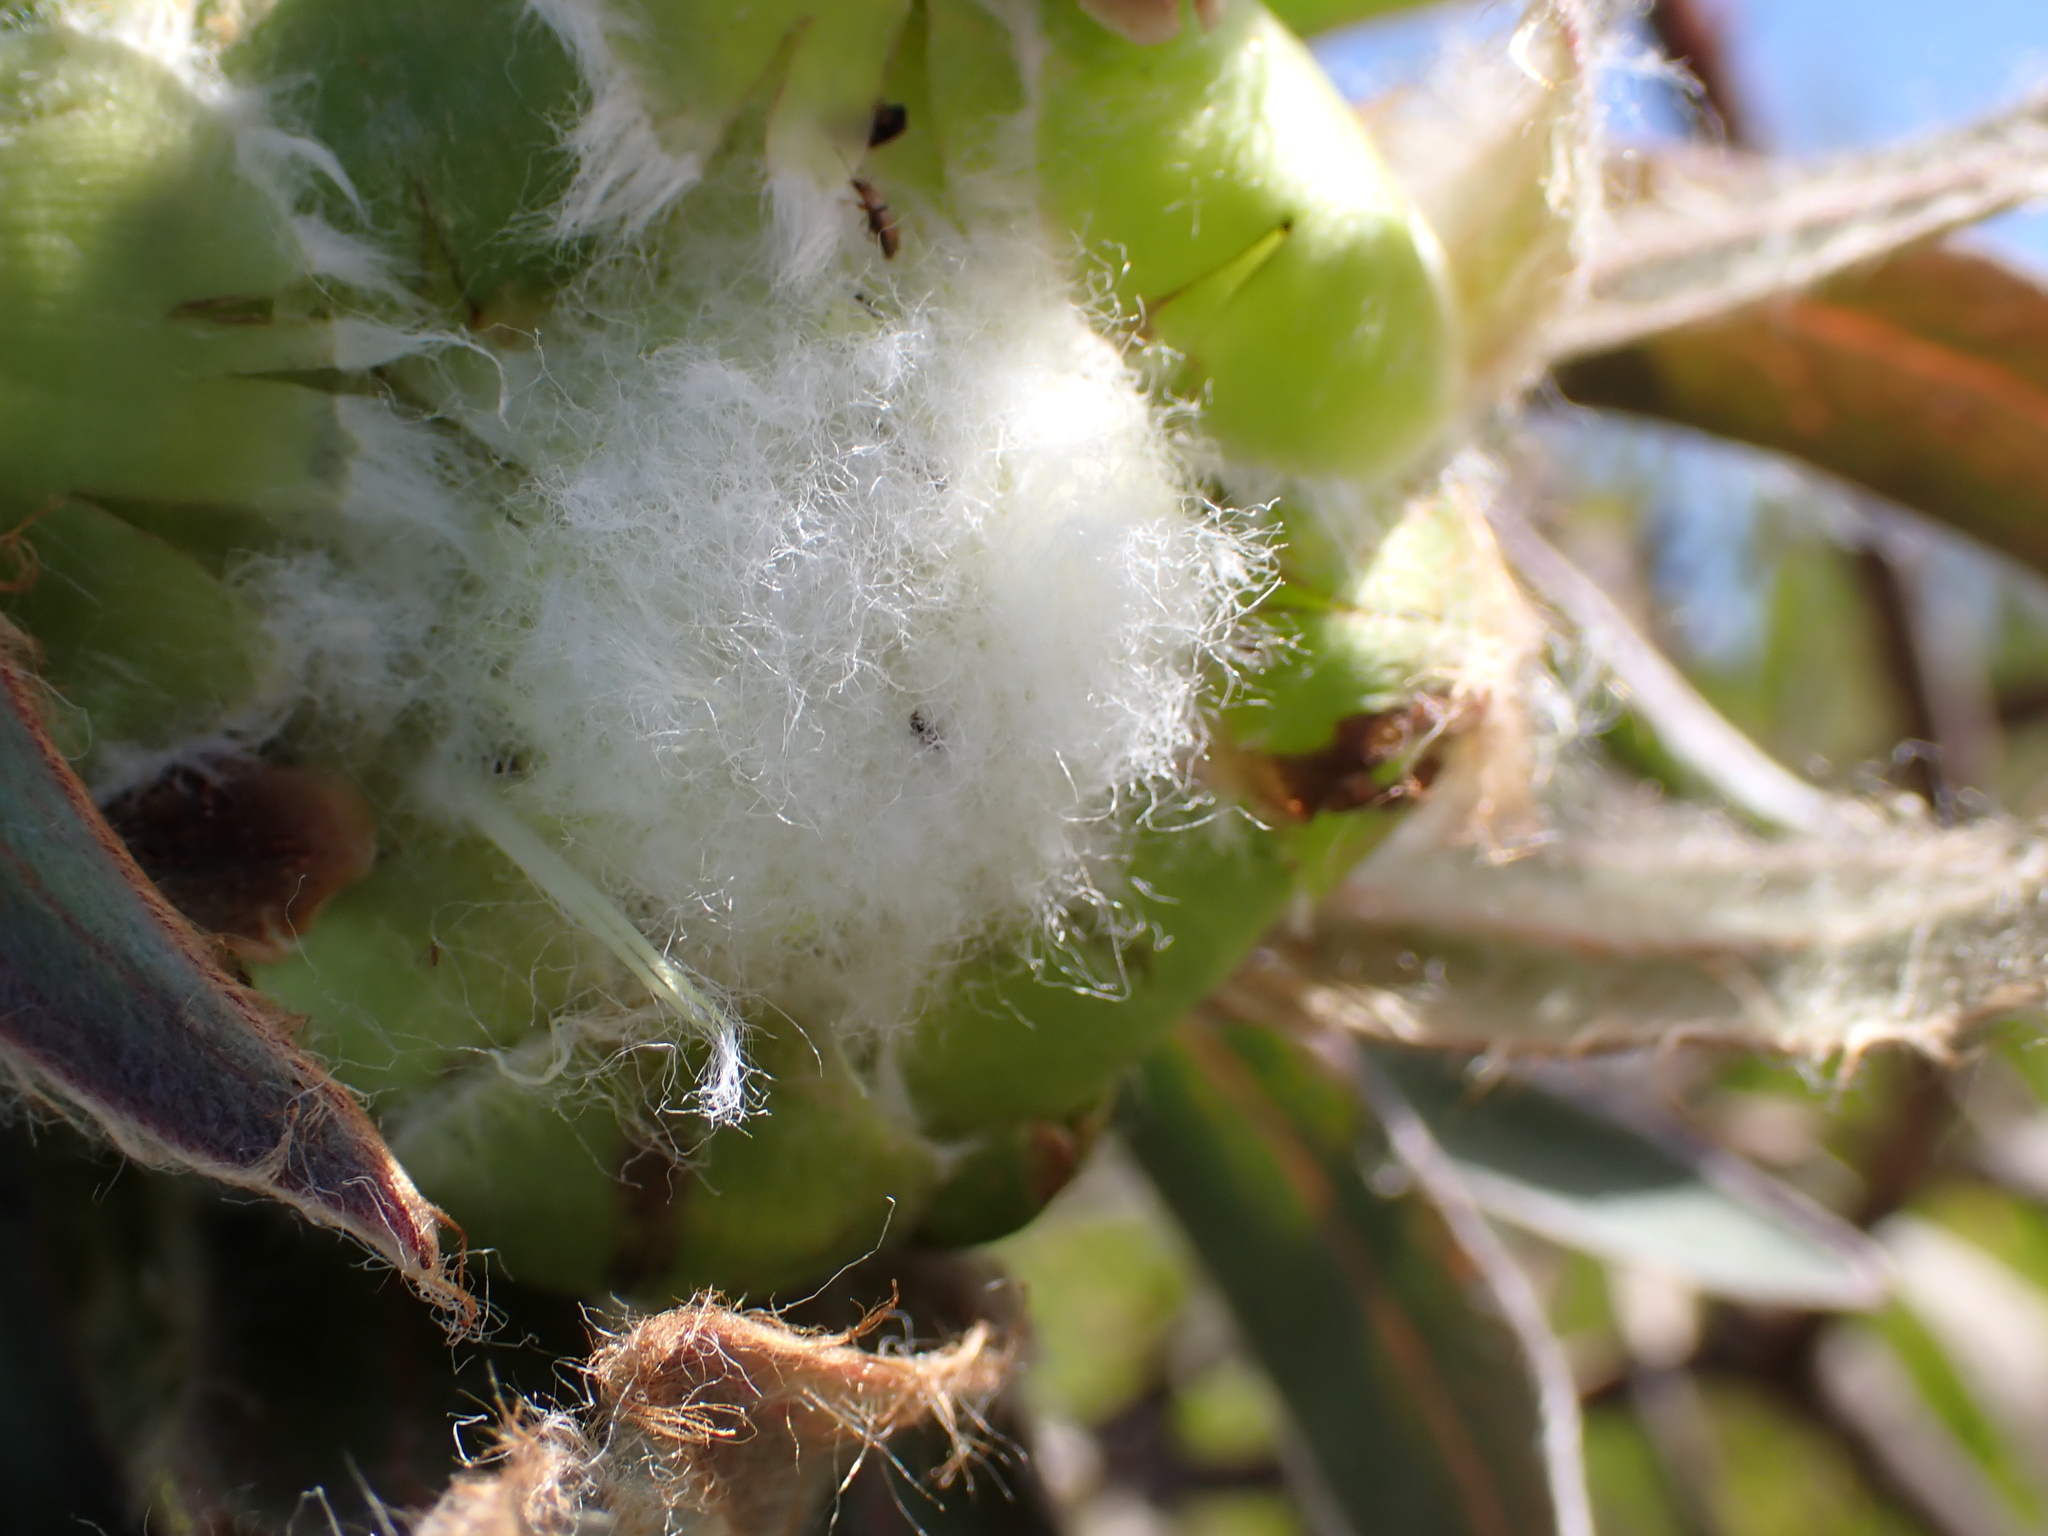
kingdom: Plantae
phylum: Tracheophyta
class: Magnoliopsida
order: Proteales
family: Proteaceae
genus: Protea
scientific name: Protea coronata
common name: Green sugarbush
